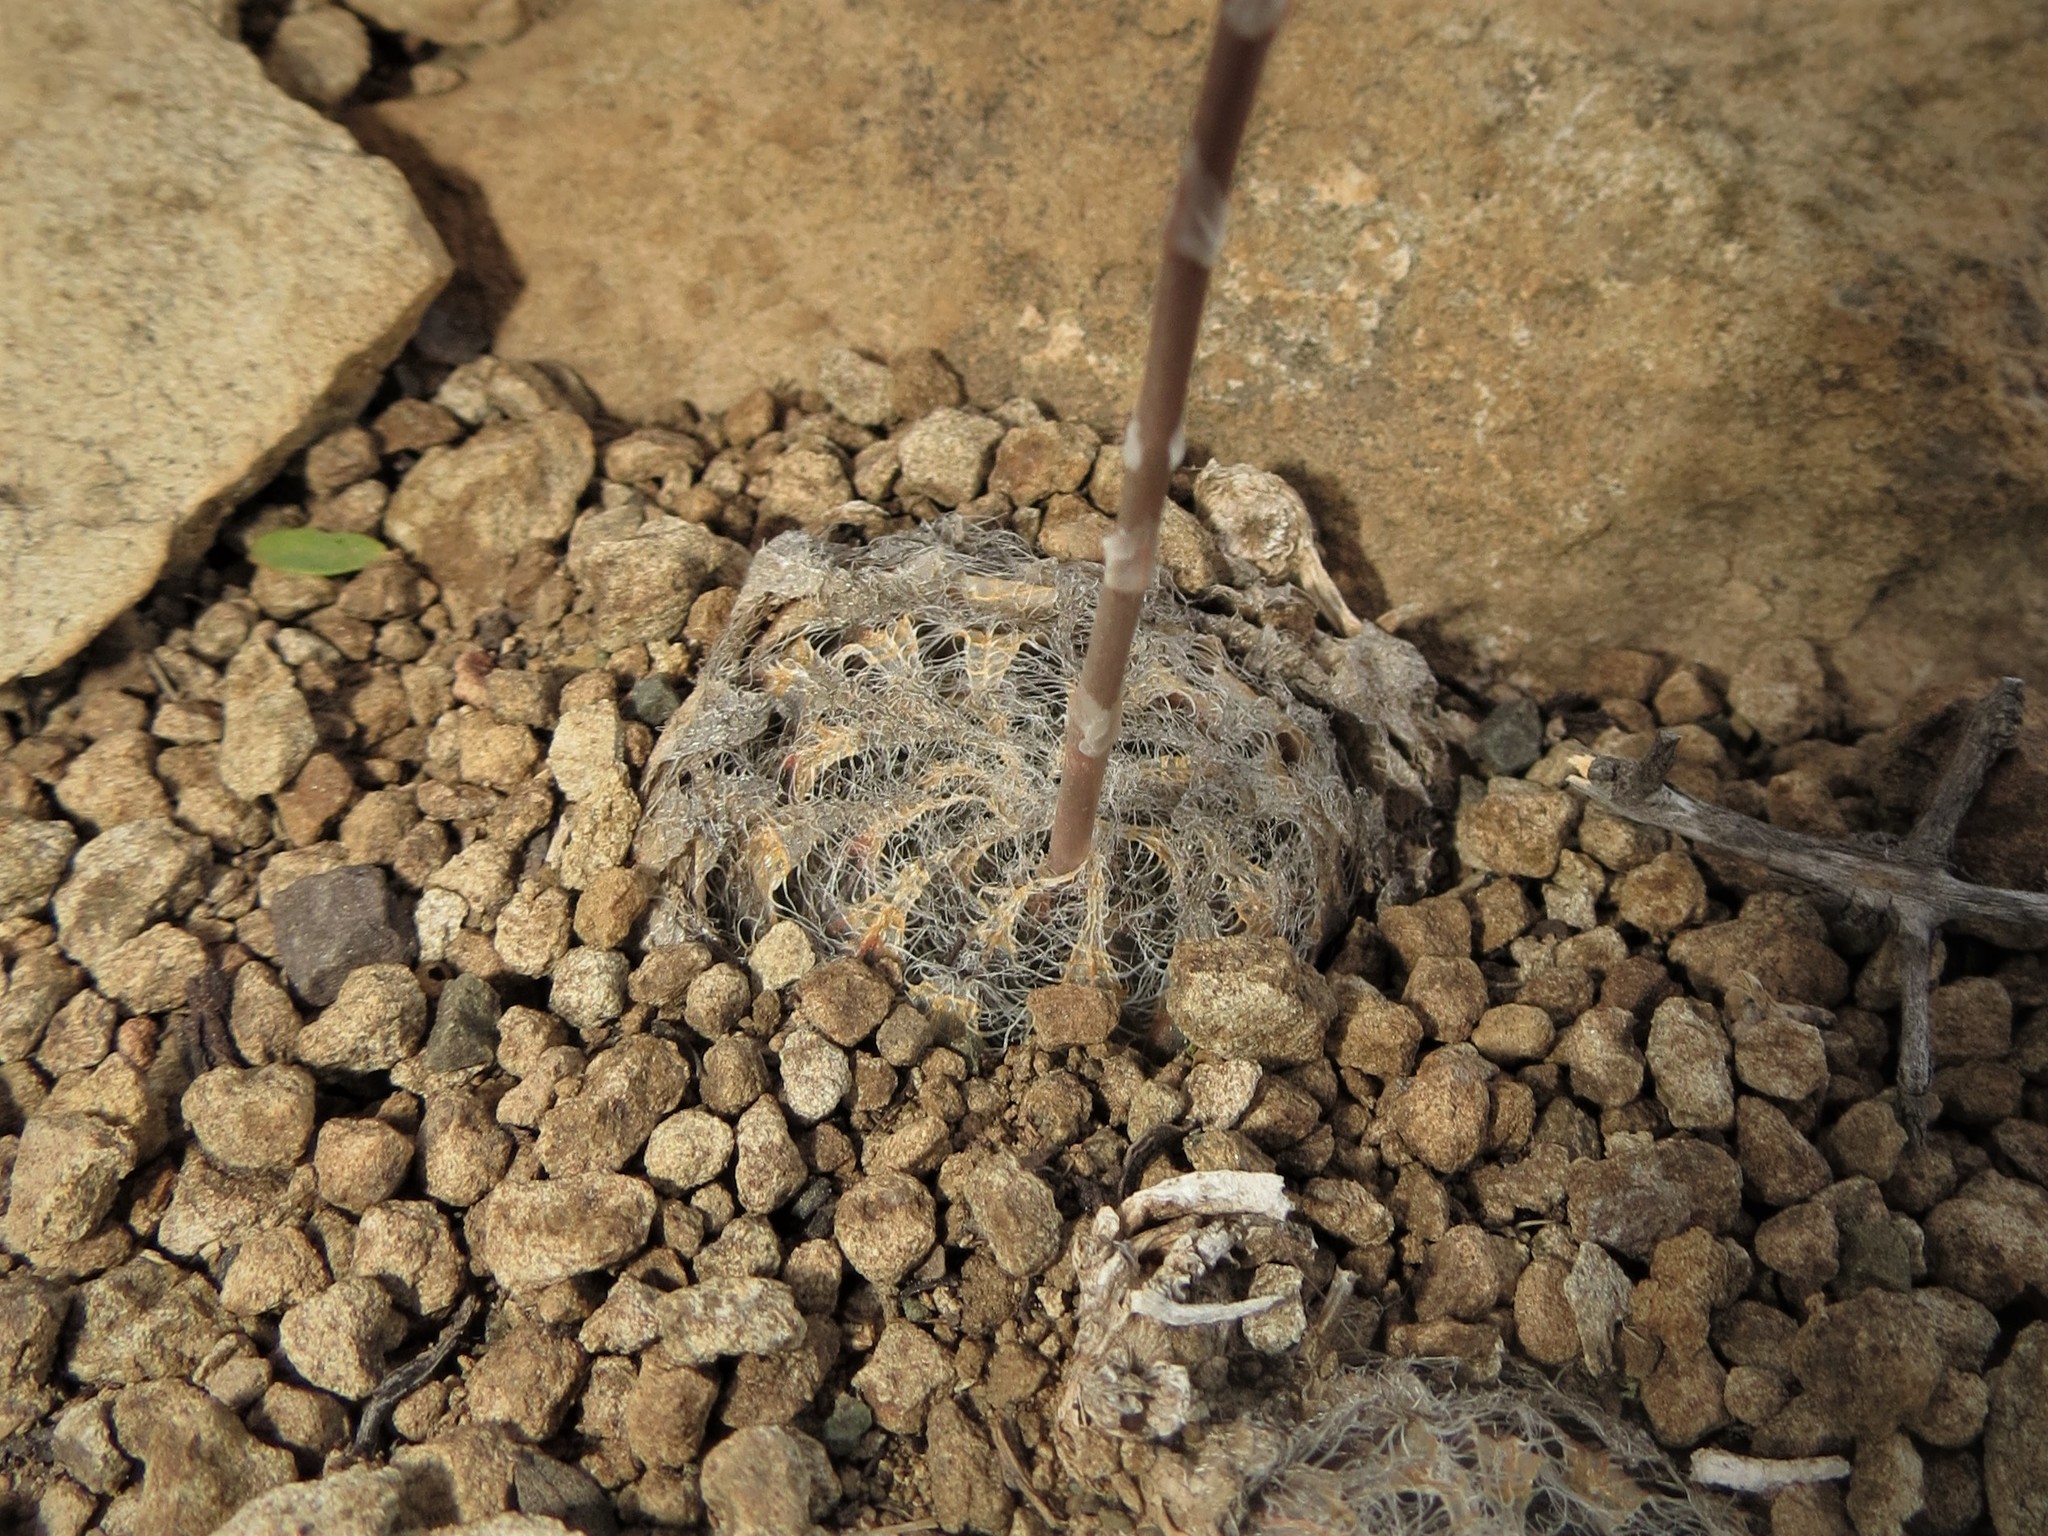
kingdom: Plantae
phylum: Tracheophyta
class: Liliopsida
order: Asparagales
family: Asphodelaceae
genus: Haworthia
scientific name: Haworthia bolusii
